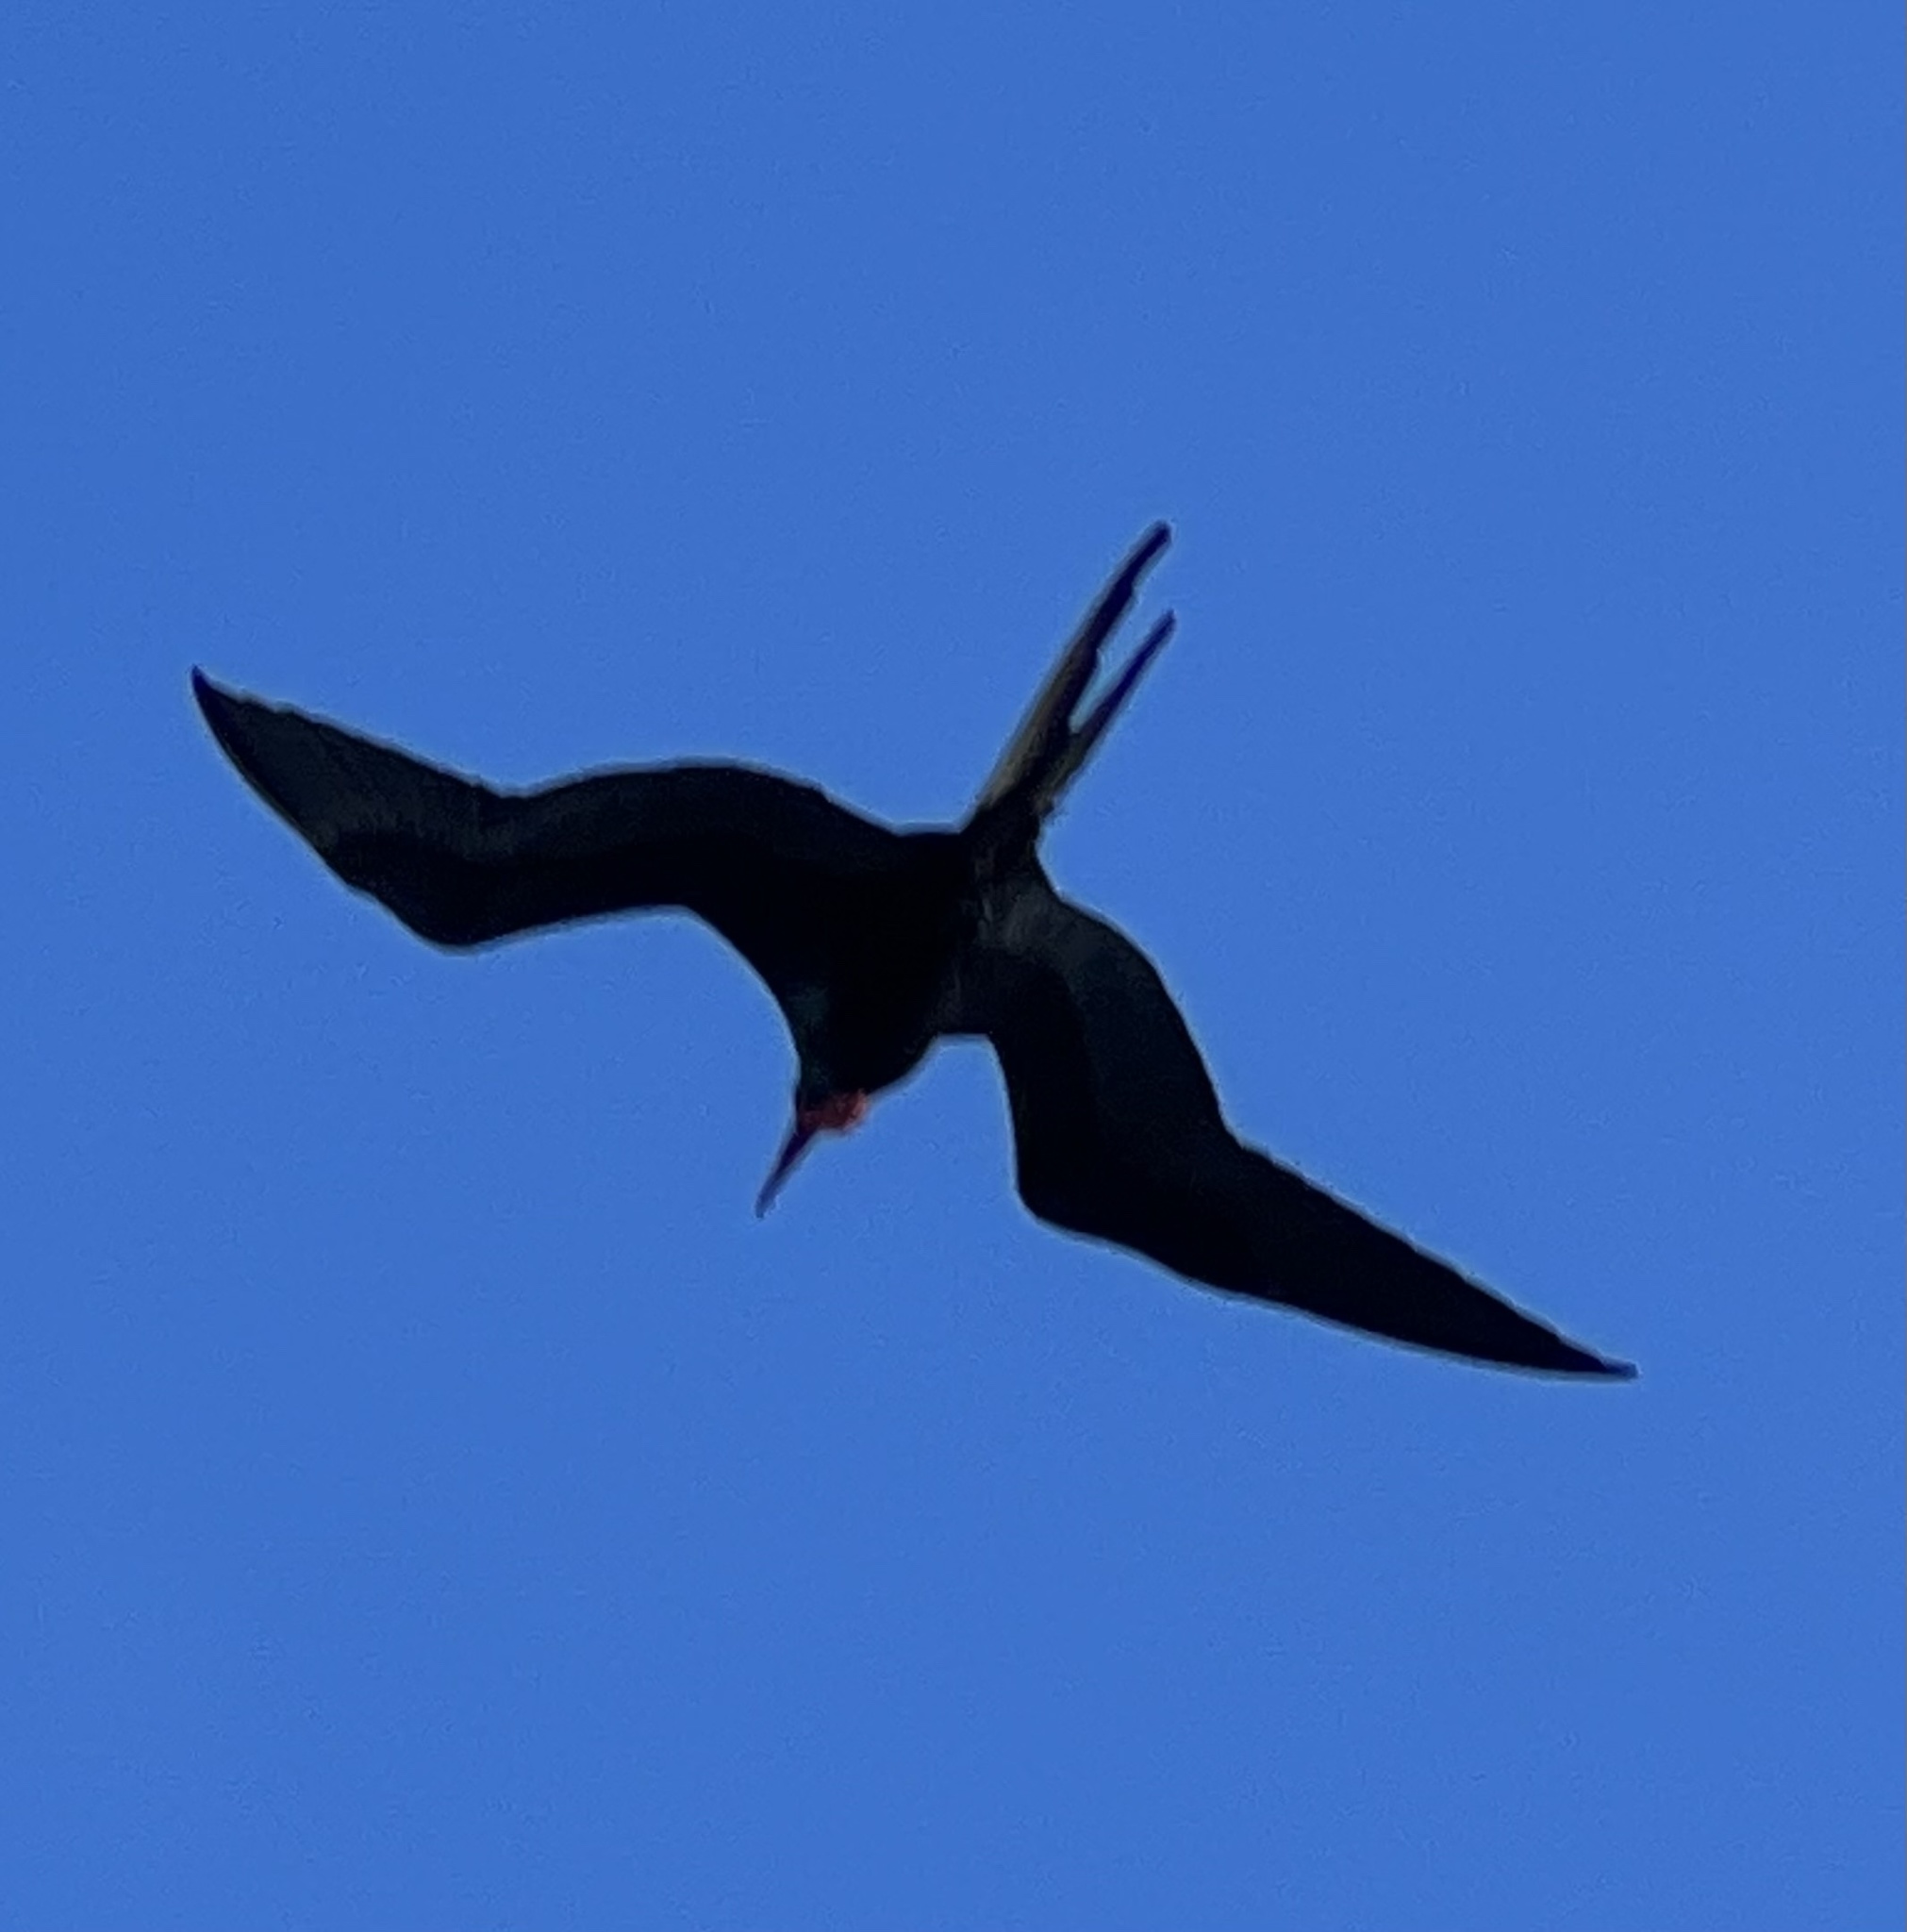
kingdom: Animalia
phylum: Chordata
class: Aves
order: Suliformes
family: Fregatidae
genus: Fregata
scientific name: Fregata magnificens
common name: Magnificent frigatebird
